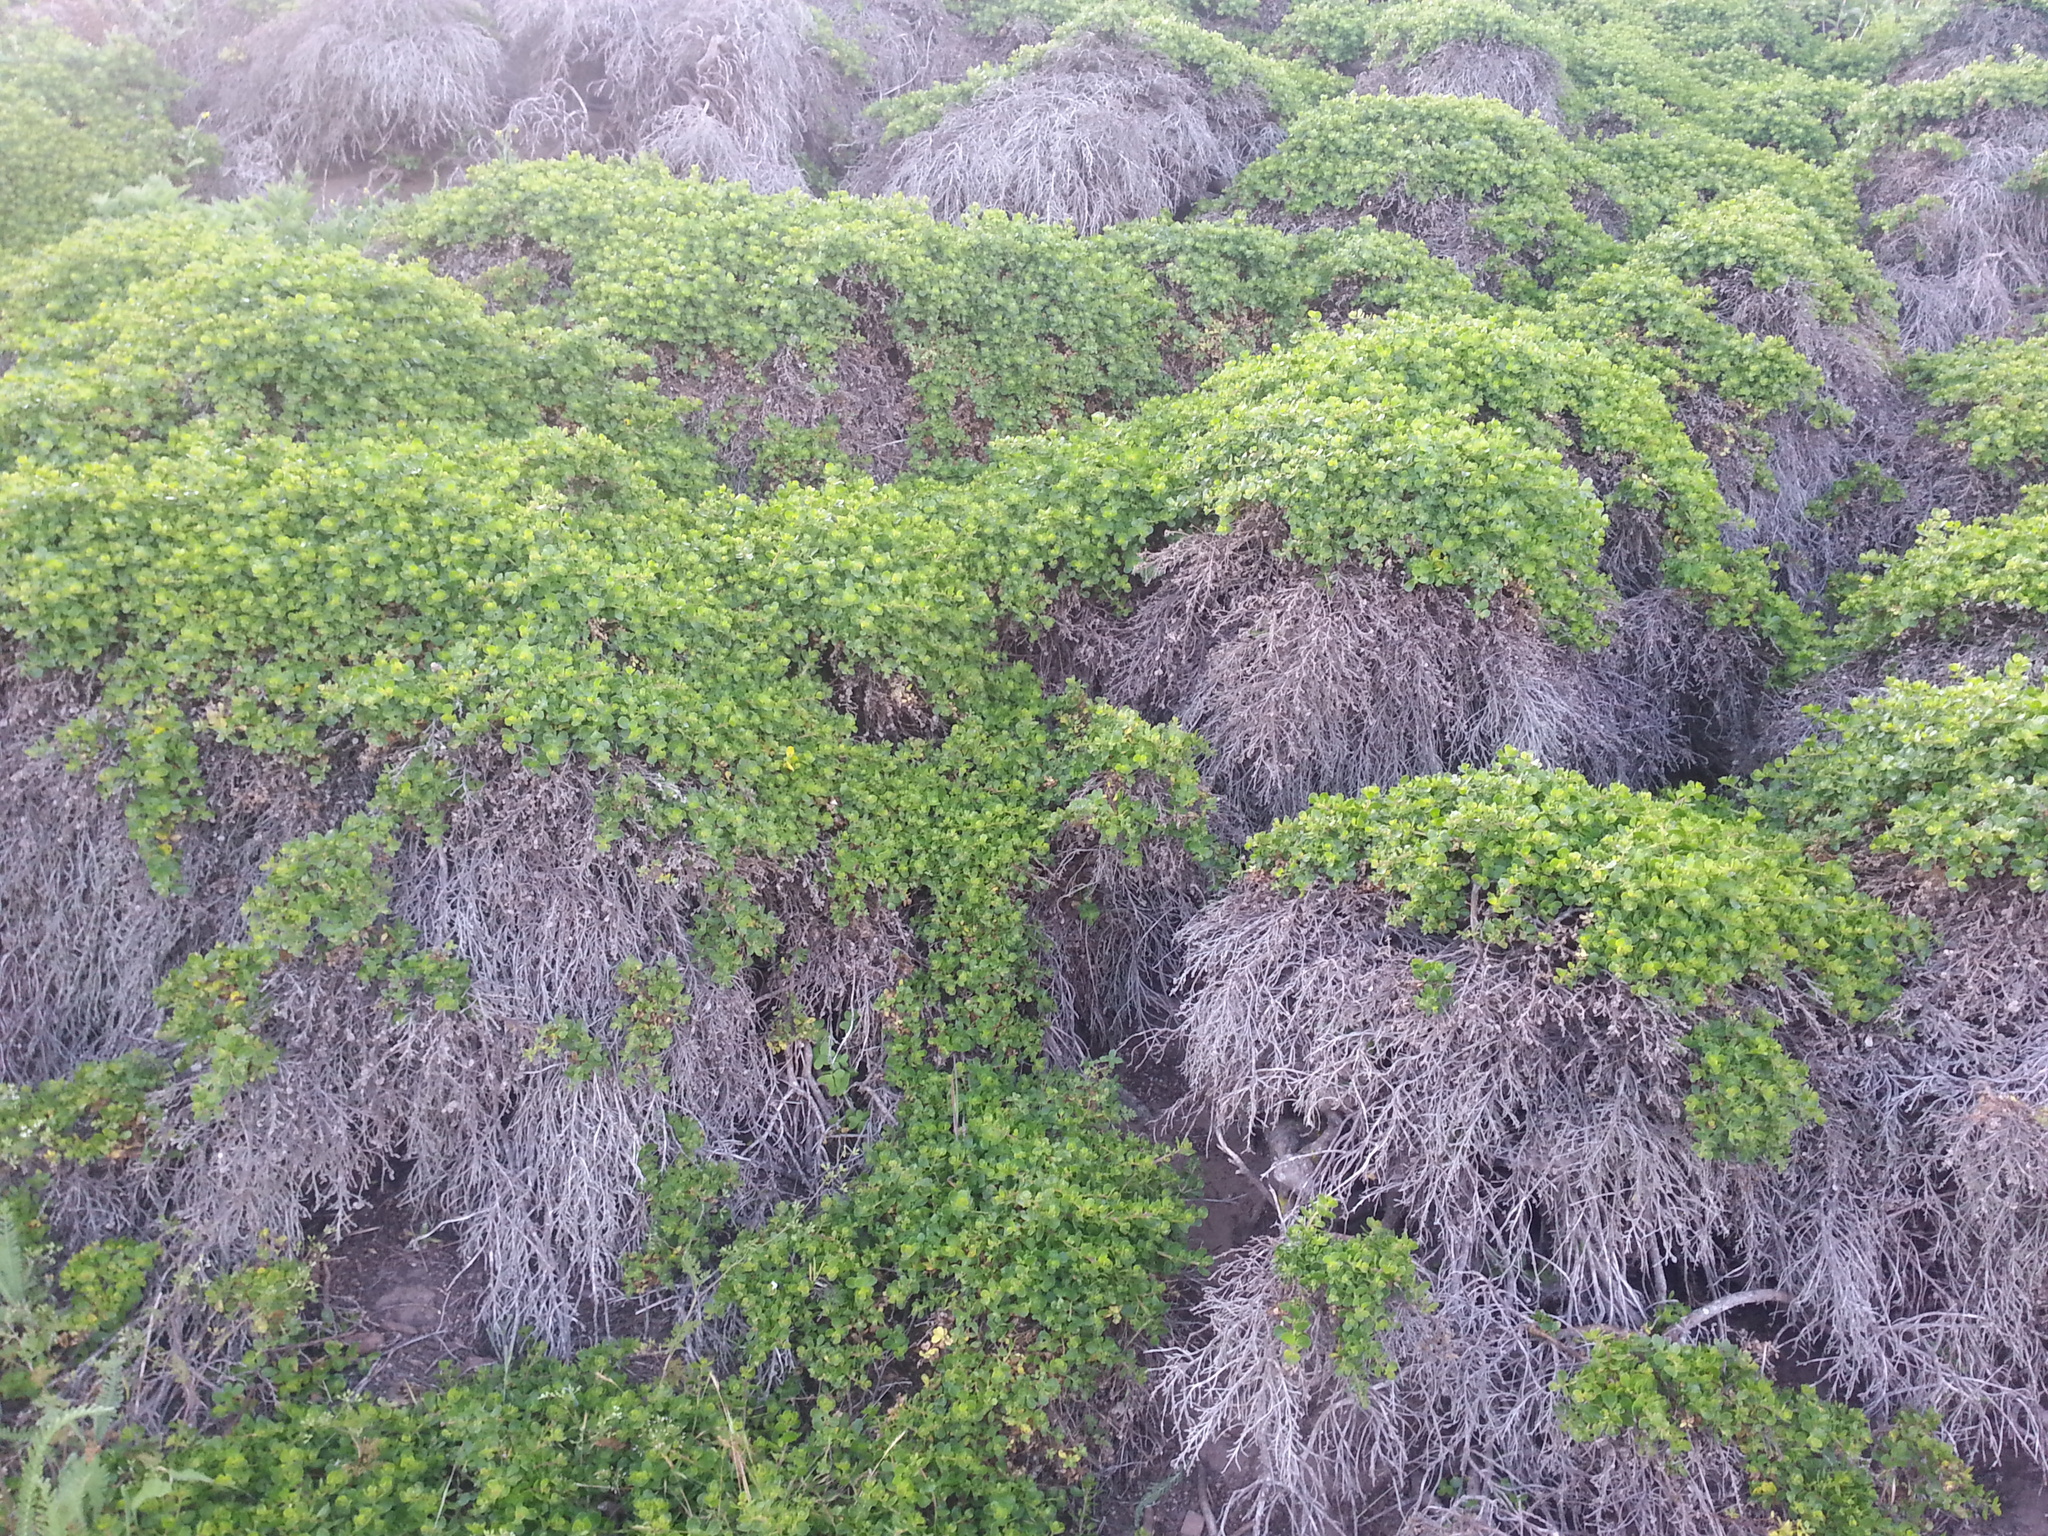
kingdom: Plantae
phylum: Tracheophyta
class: Magnoliopsida
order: Asterales
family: Asteraceae
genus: Baccharis
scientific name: Baccharis pilularis
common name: Coyotebrush
